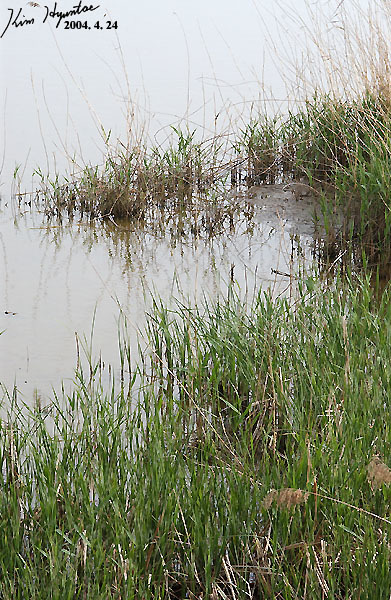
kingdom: Plantae
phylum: Tracheophyta
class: Liliopsida
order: Poales
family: Poaceae
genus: Phragmites
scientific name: Phragmites australis
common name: Common reed
